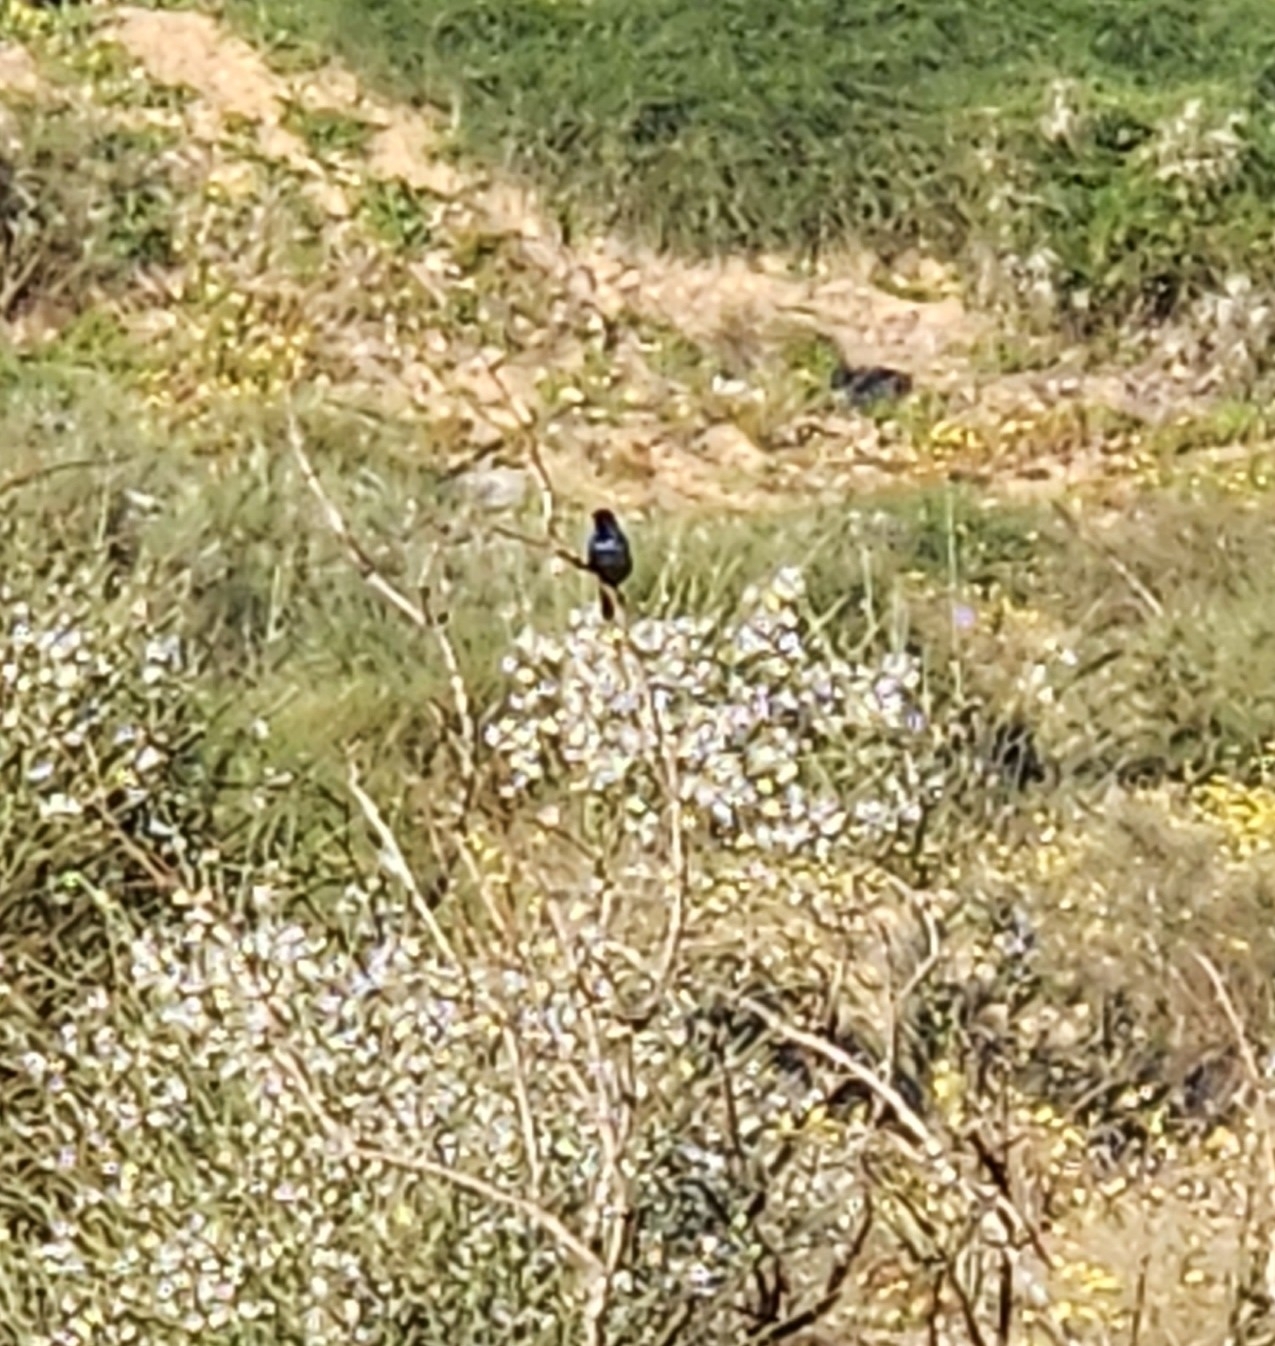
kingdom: Animalia
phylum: Chordata
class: Aves
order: Passeriformes
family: Nectariniidae
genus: Cinnyris
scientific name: Cinnyris osea
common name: Palestine sunbird
